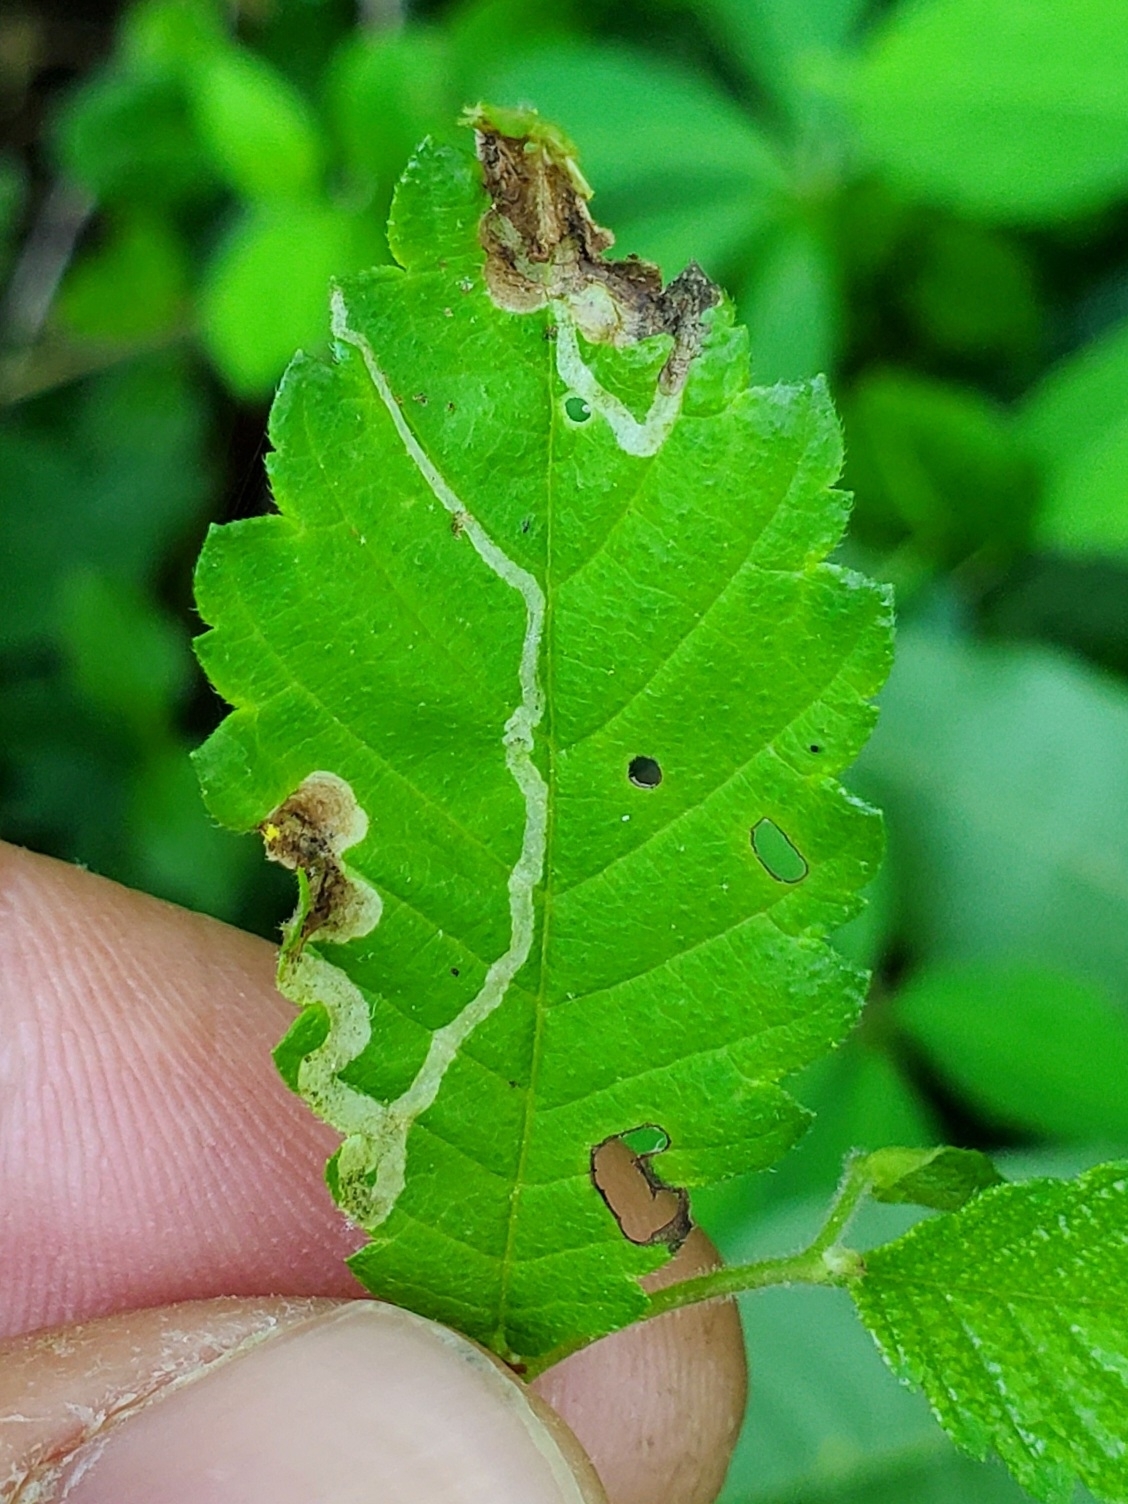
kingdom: Animalia
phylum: Arthropoda
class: Insecta
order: Diptera
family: Agromyzidae
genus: Agromyza
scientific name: Agromyza aristata
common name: Elm agromyzid leafminer
